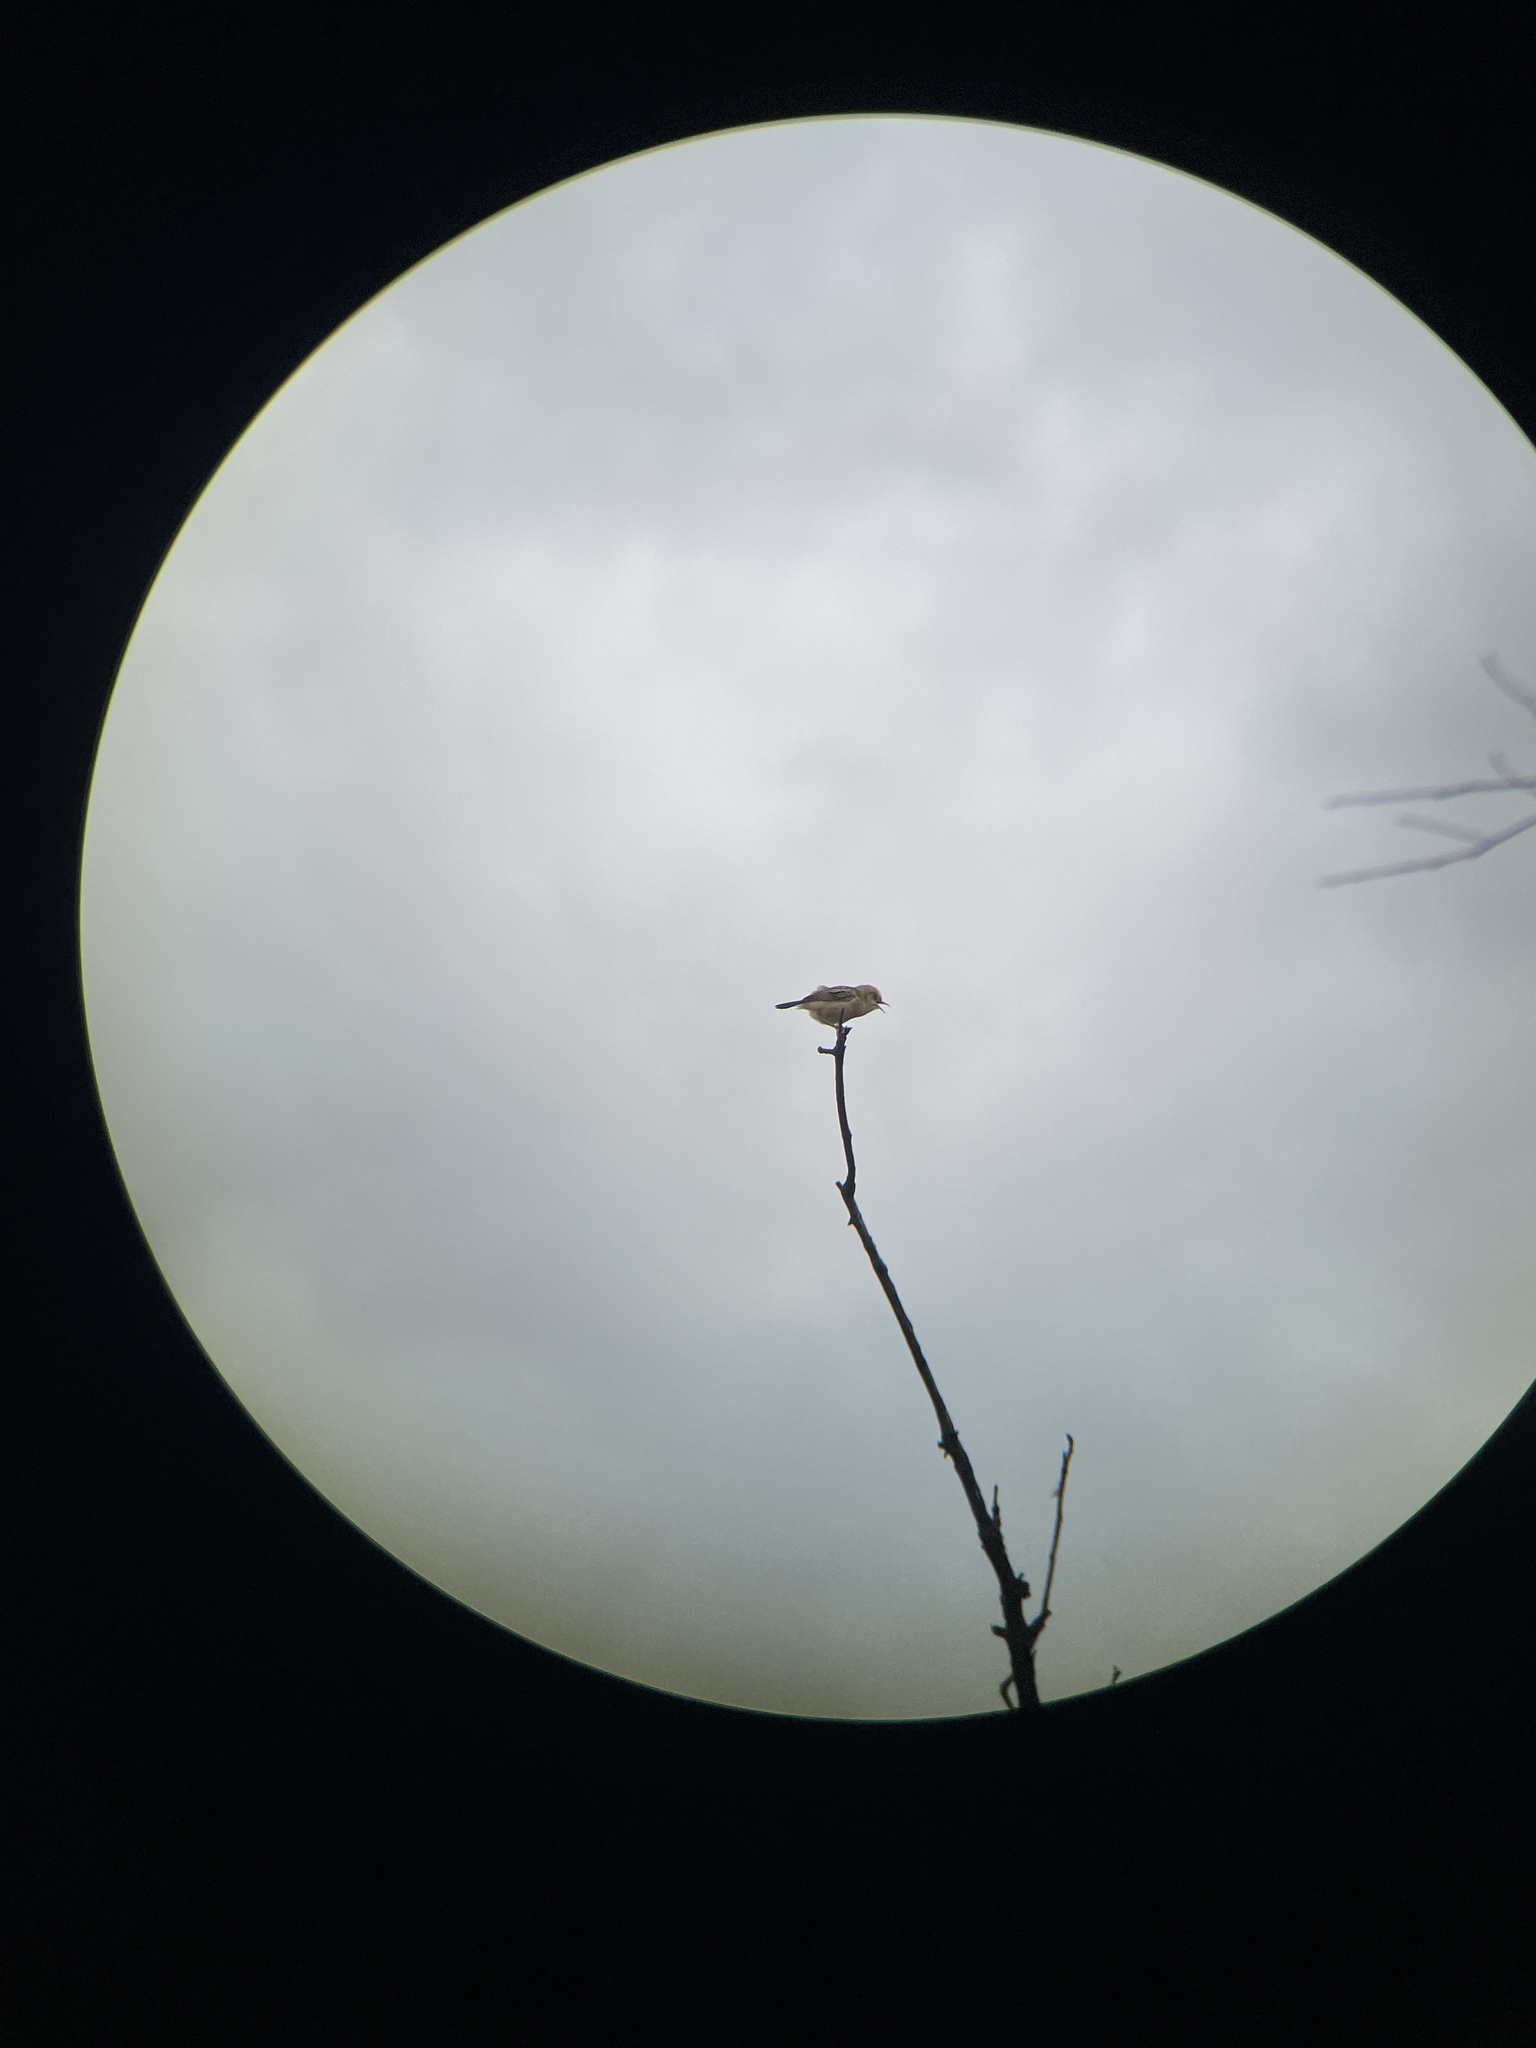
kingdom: Animalia
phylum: Chordata
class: Aves
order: Passeriformes
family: Cisticolidae
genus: Cisticola
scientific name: Cisticola exilis
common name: Golden-headed cisticola
